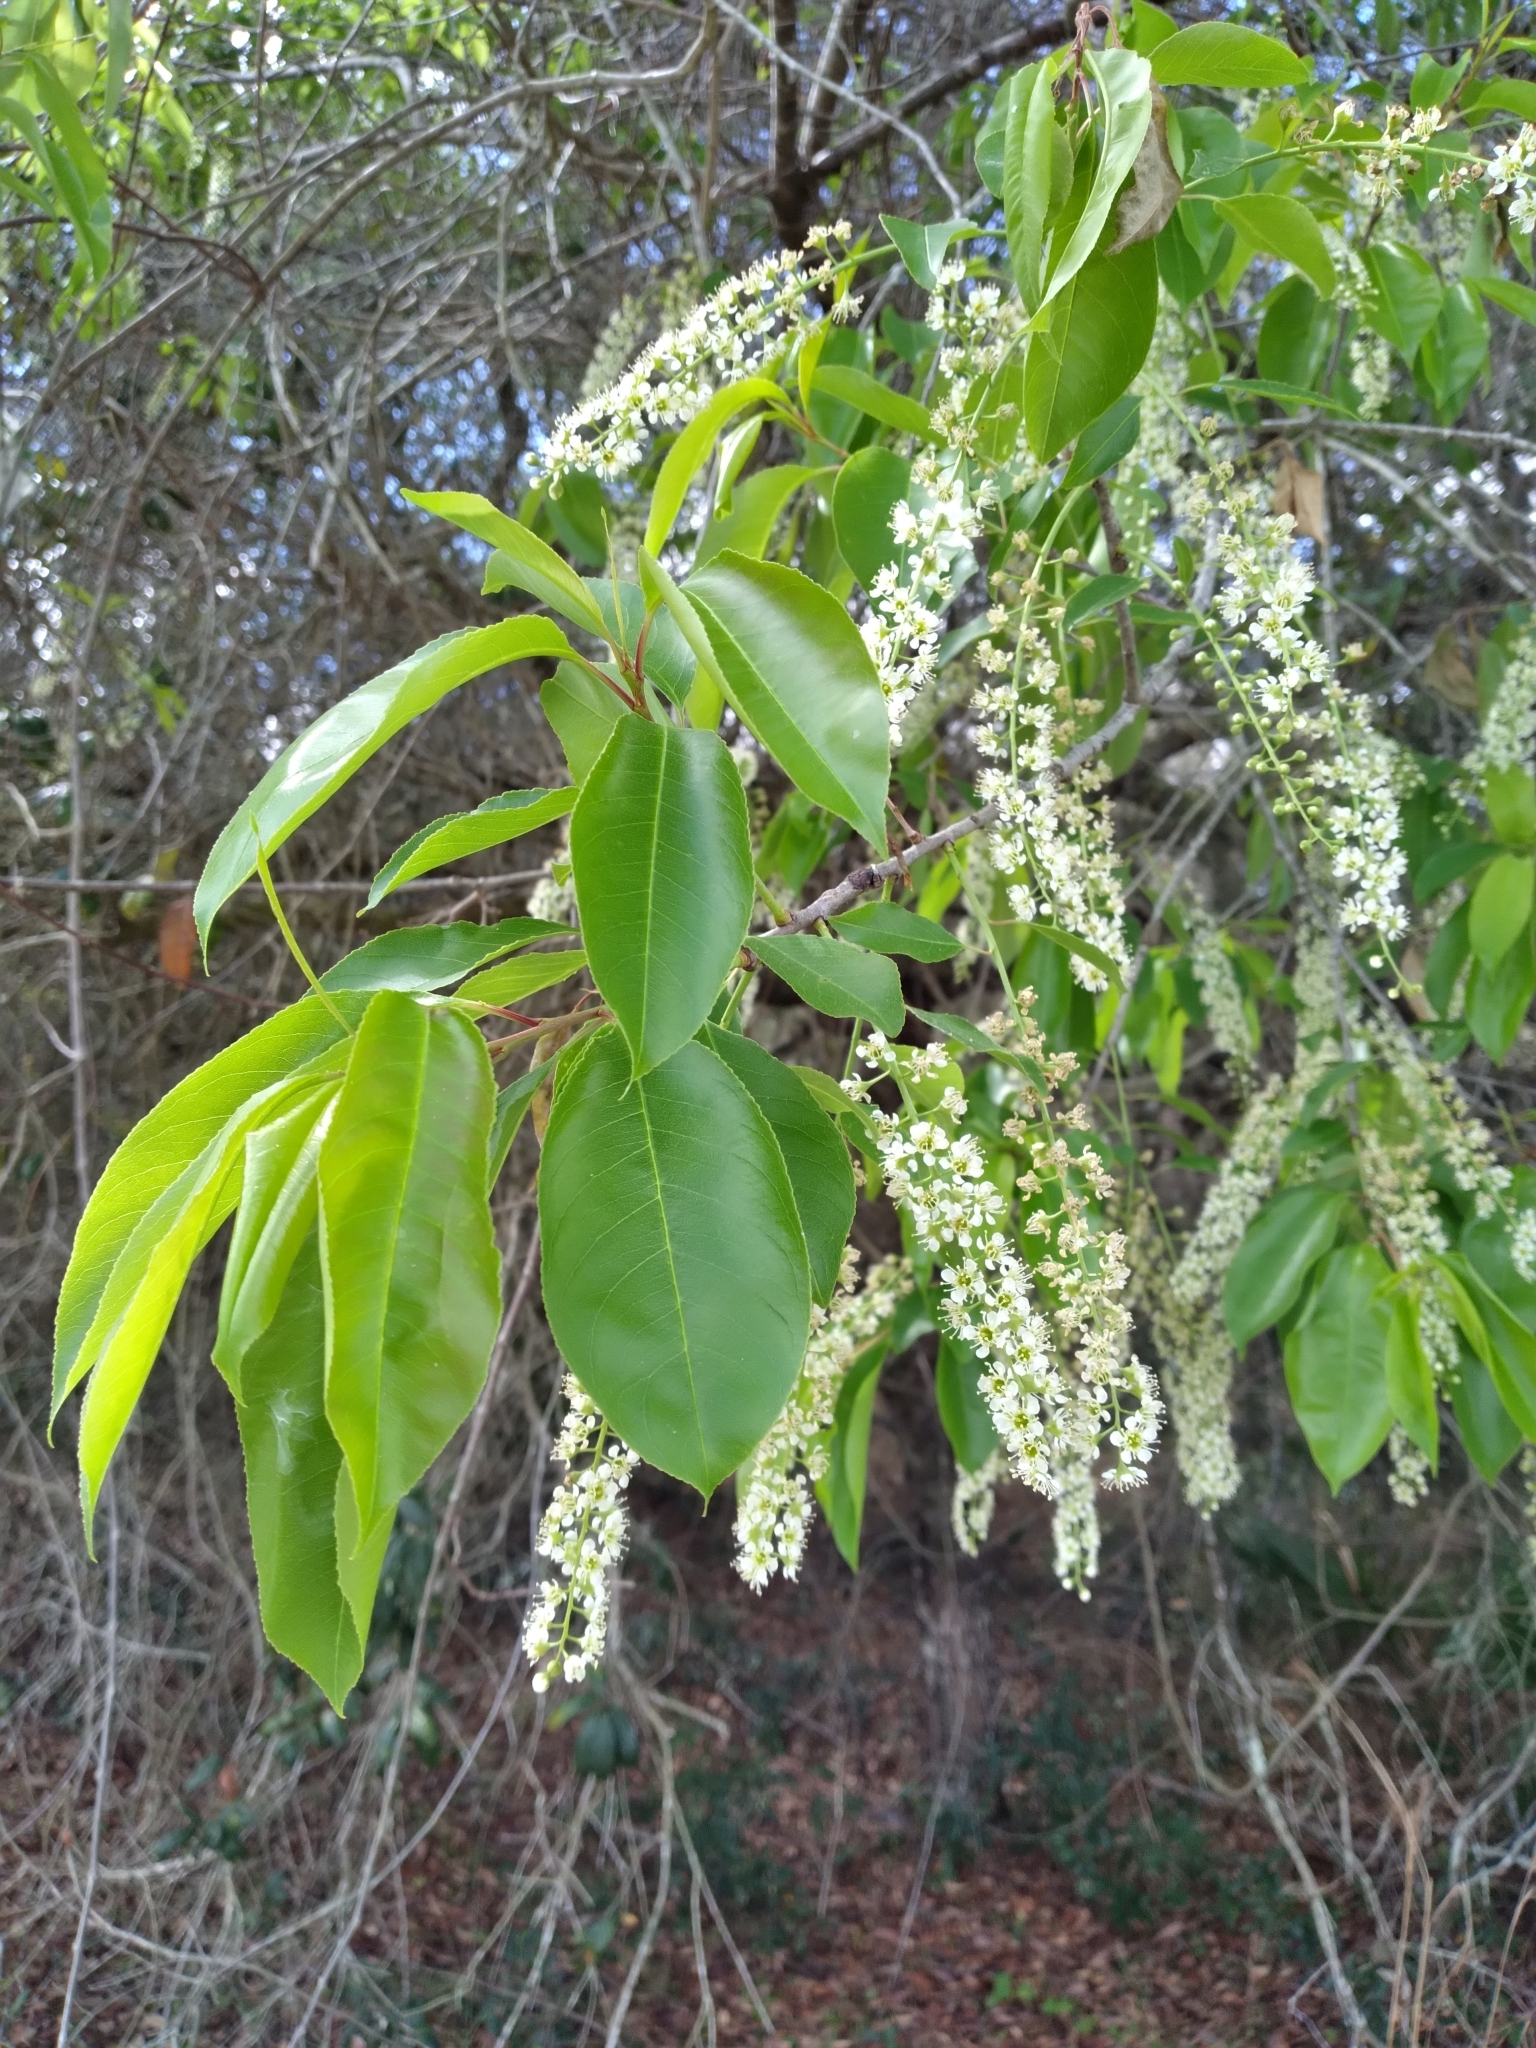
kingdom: Plantae
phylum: Tracheophyta
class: Magnoliopsida
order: Rosales
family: Rosaceae
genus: Prunus
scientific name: Prunus serotina
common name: Black cherry
